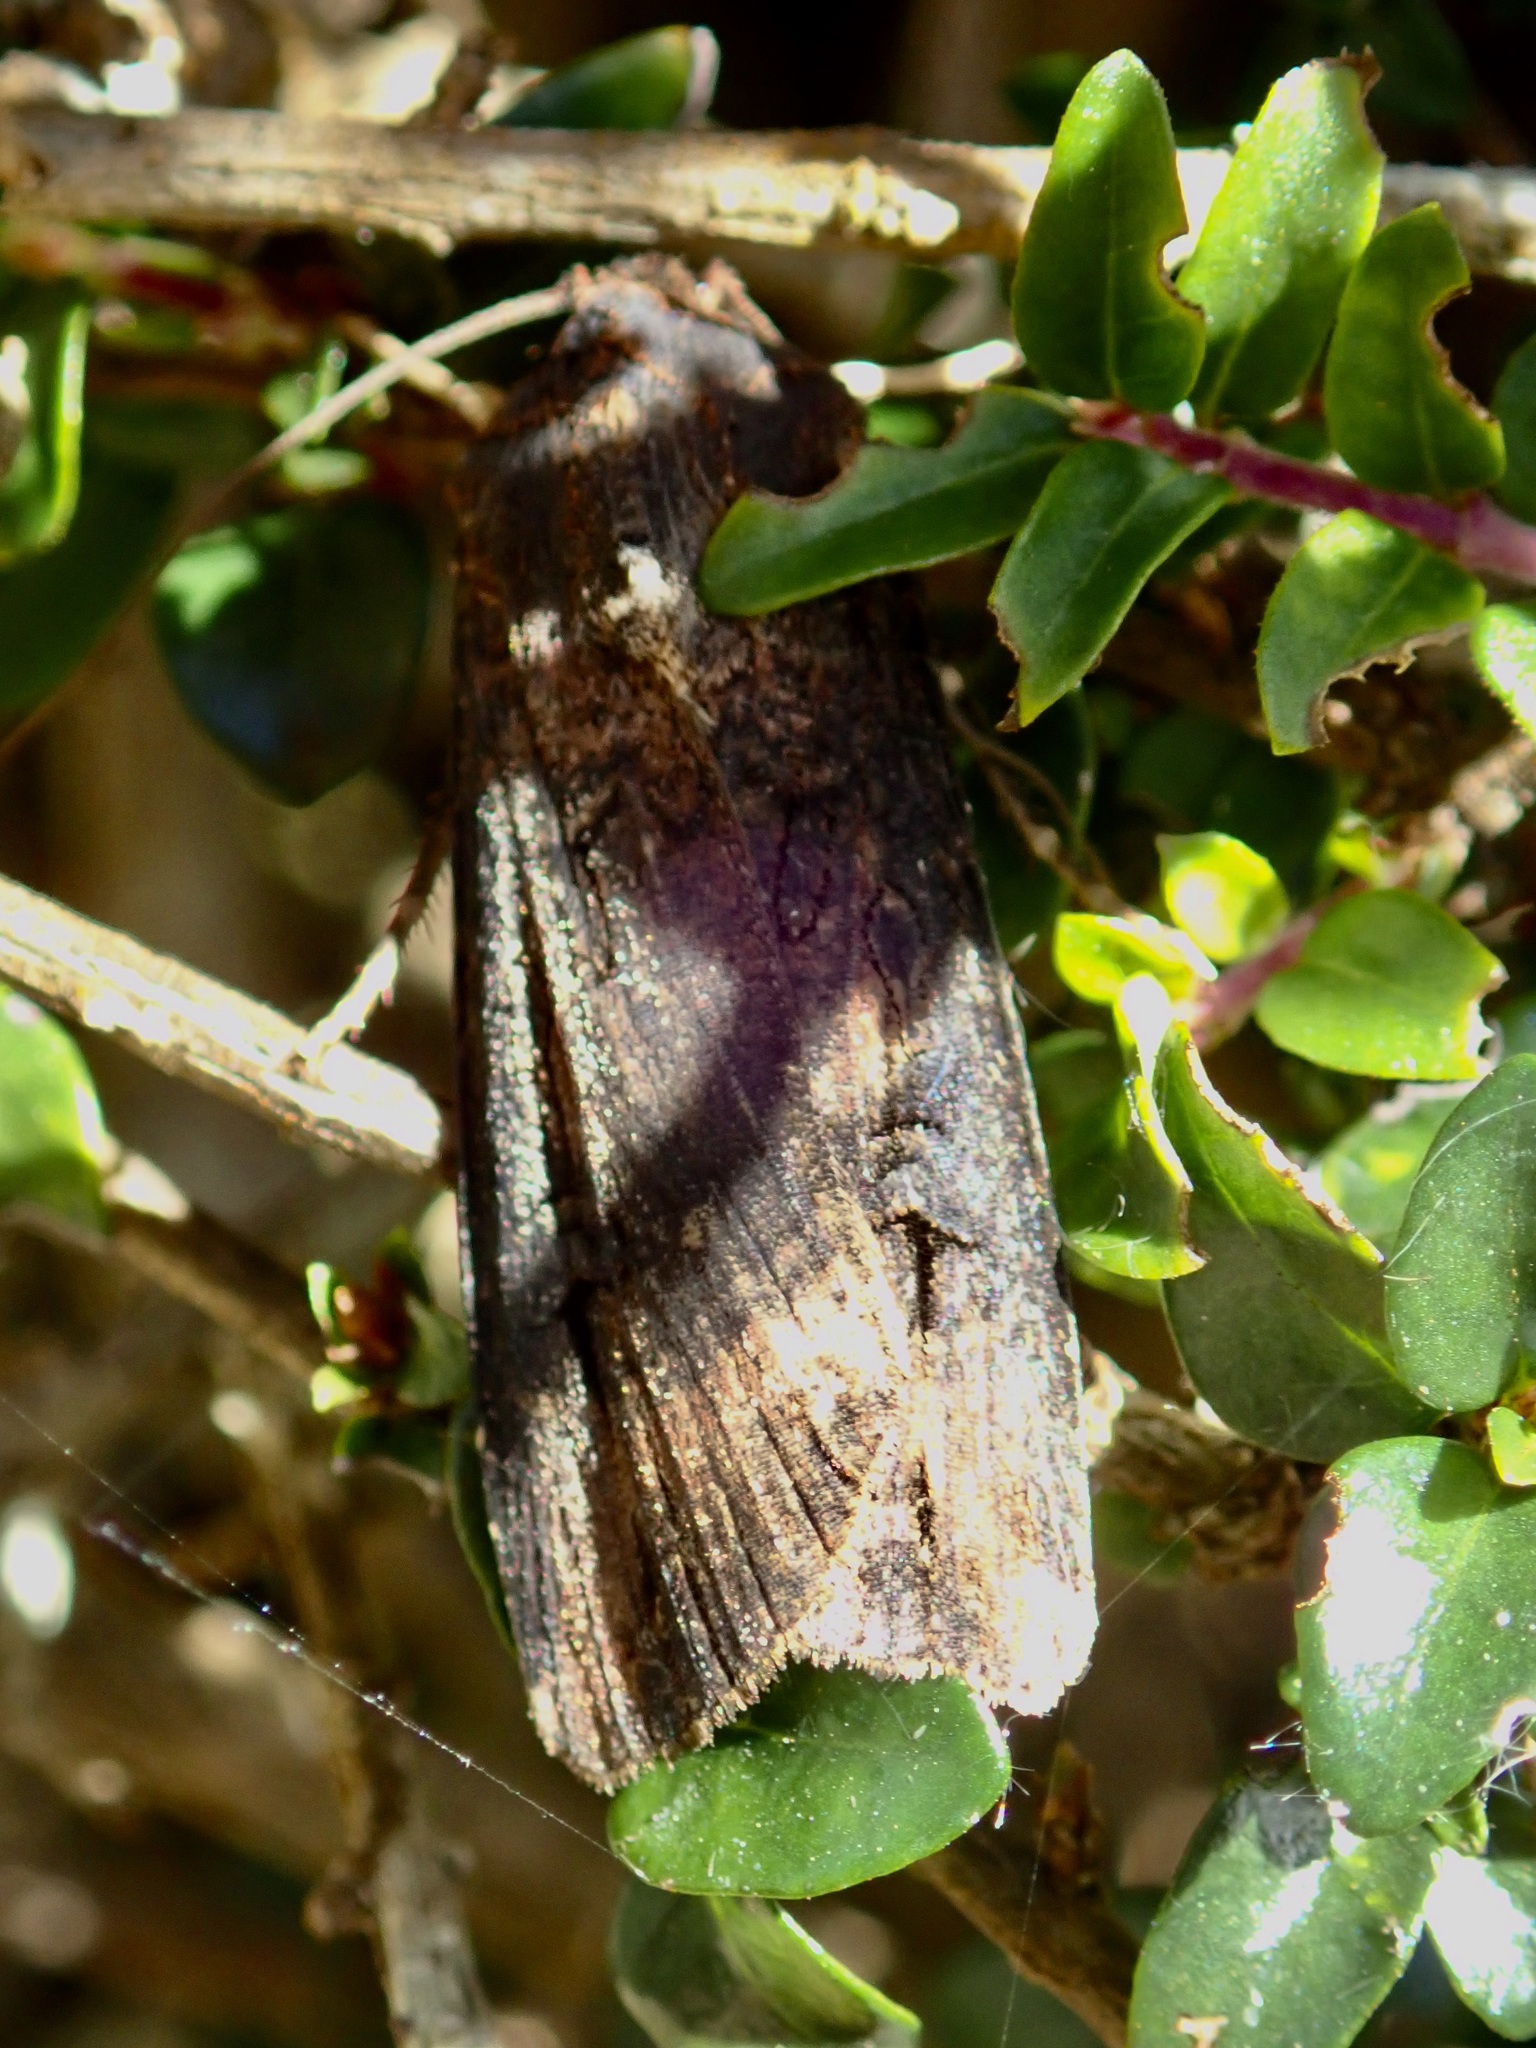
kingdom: Animalia
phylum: Arthropoda
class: Insecta
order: Lepidoptera
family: Noctuidae
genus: Agrotis
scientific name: Agrotis ipsilon
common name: Dark sword-grass
